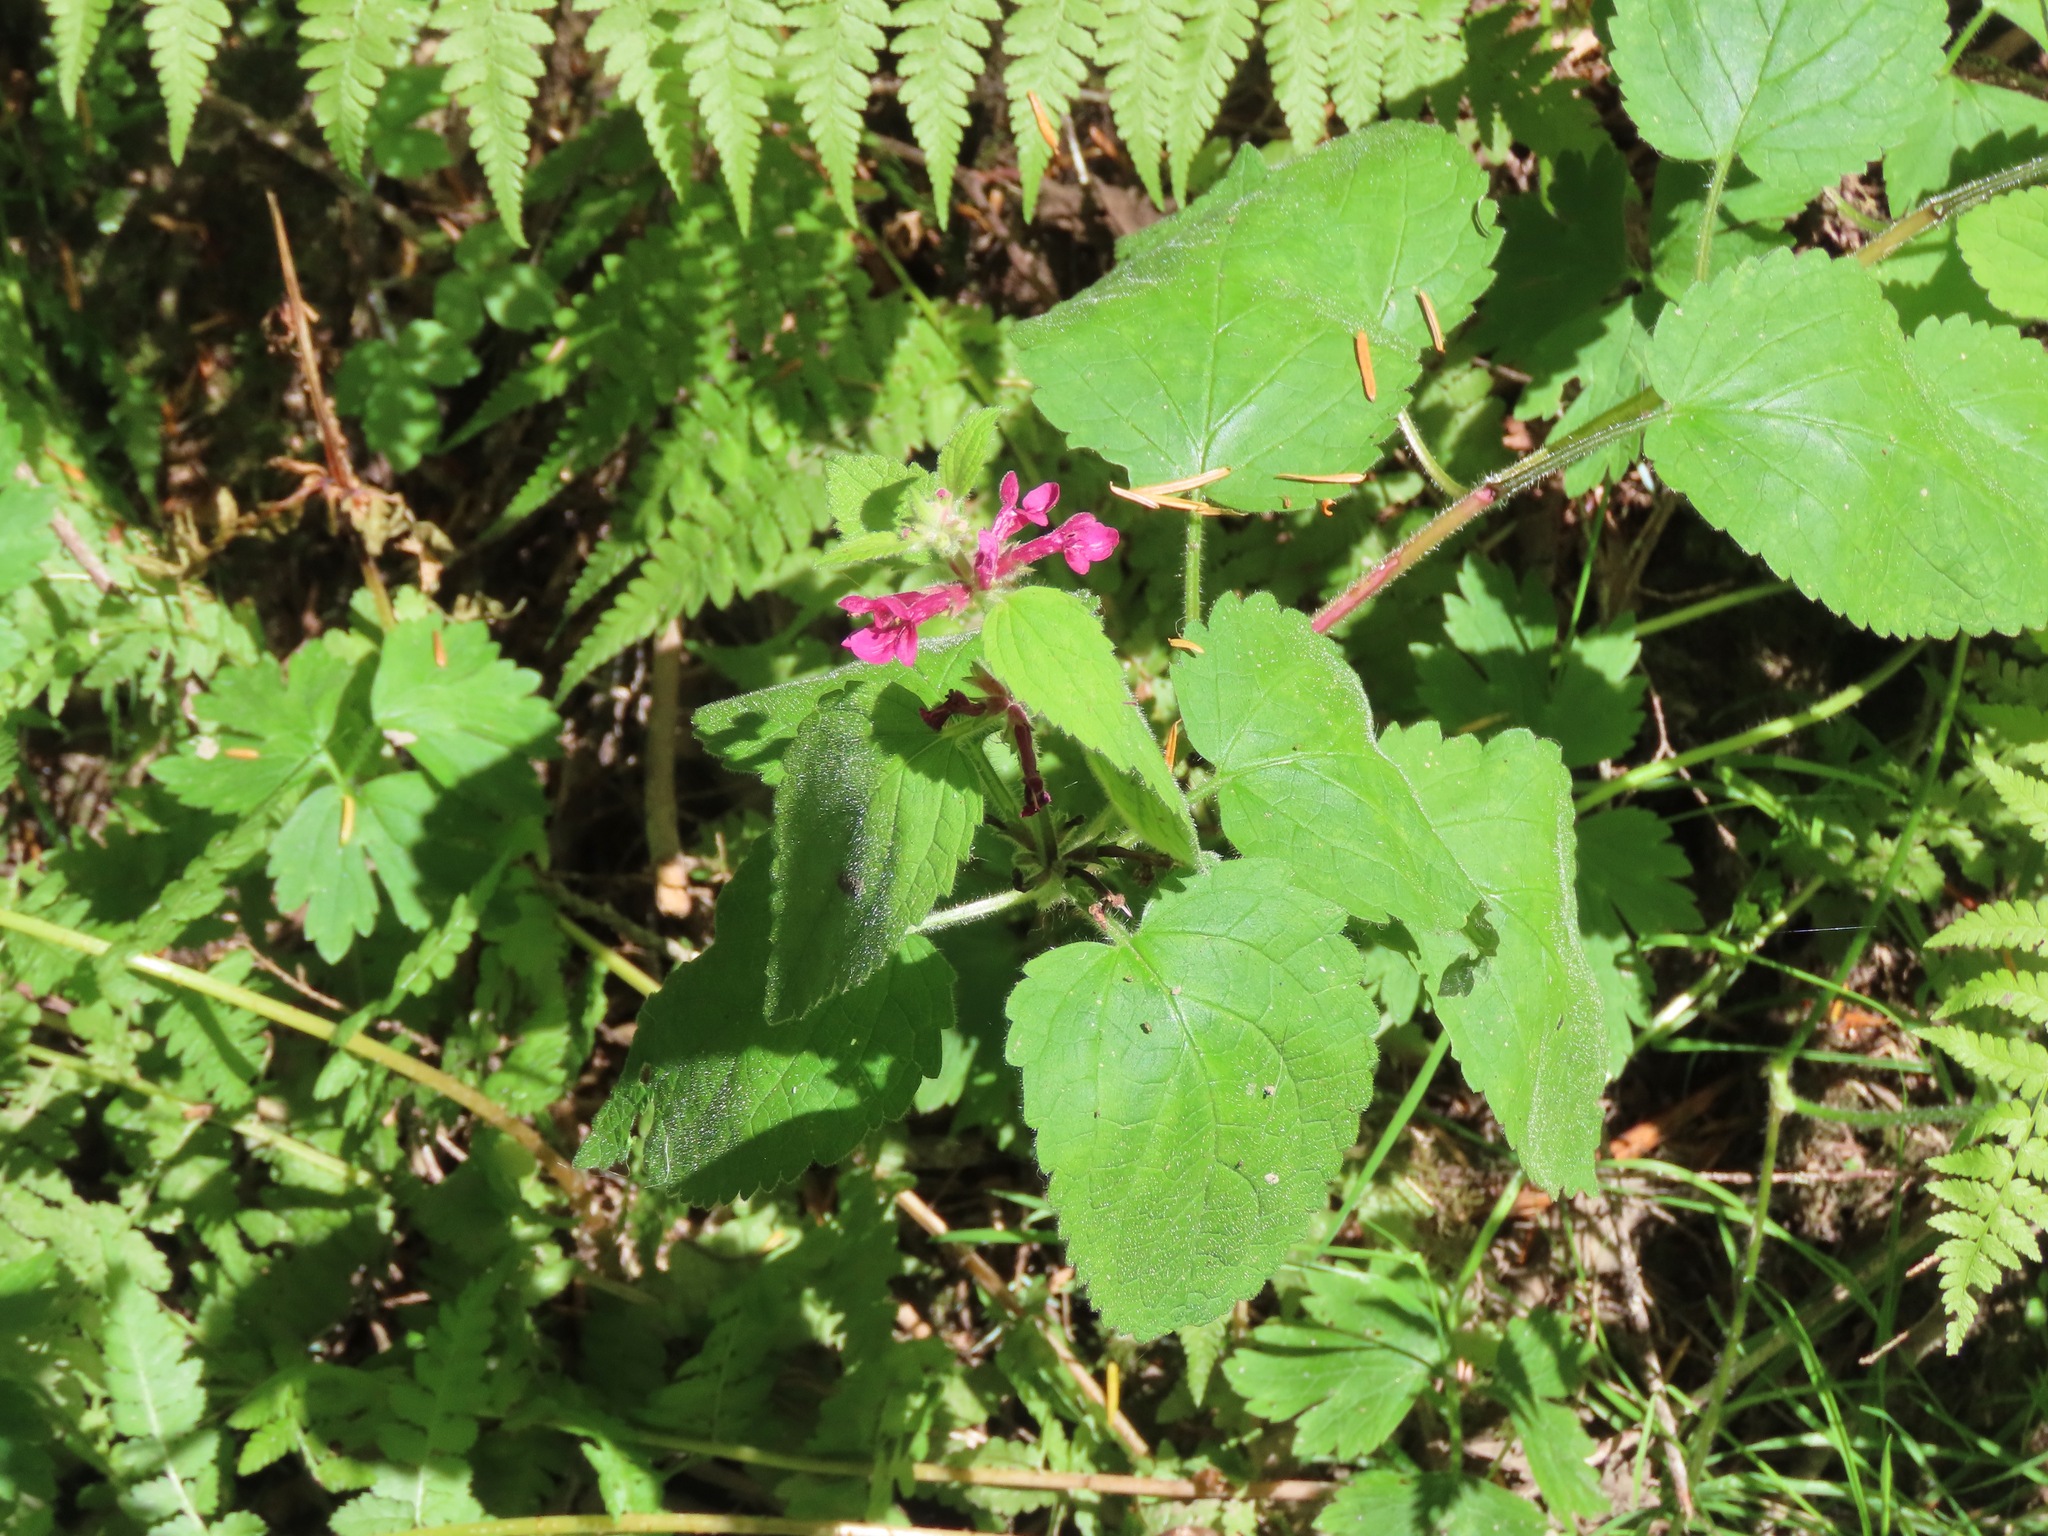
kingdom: Plantae
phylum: Tracheophyta
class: Magnoliopsida
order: Lamiales
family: Lamiaceae
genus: Stachys
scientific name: Stachys chamissonis
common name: Coastal hedge-nettle
